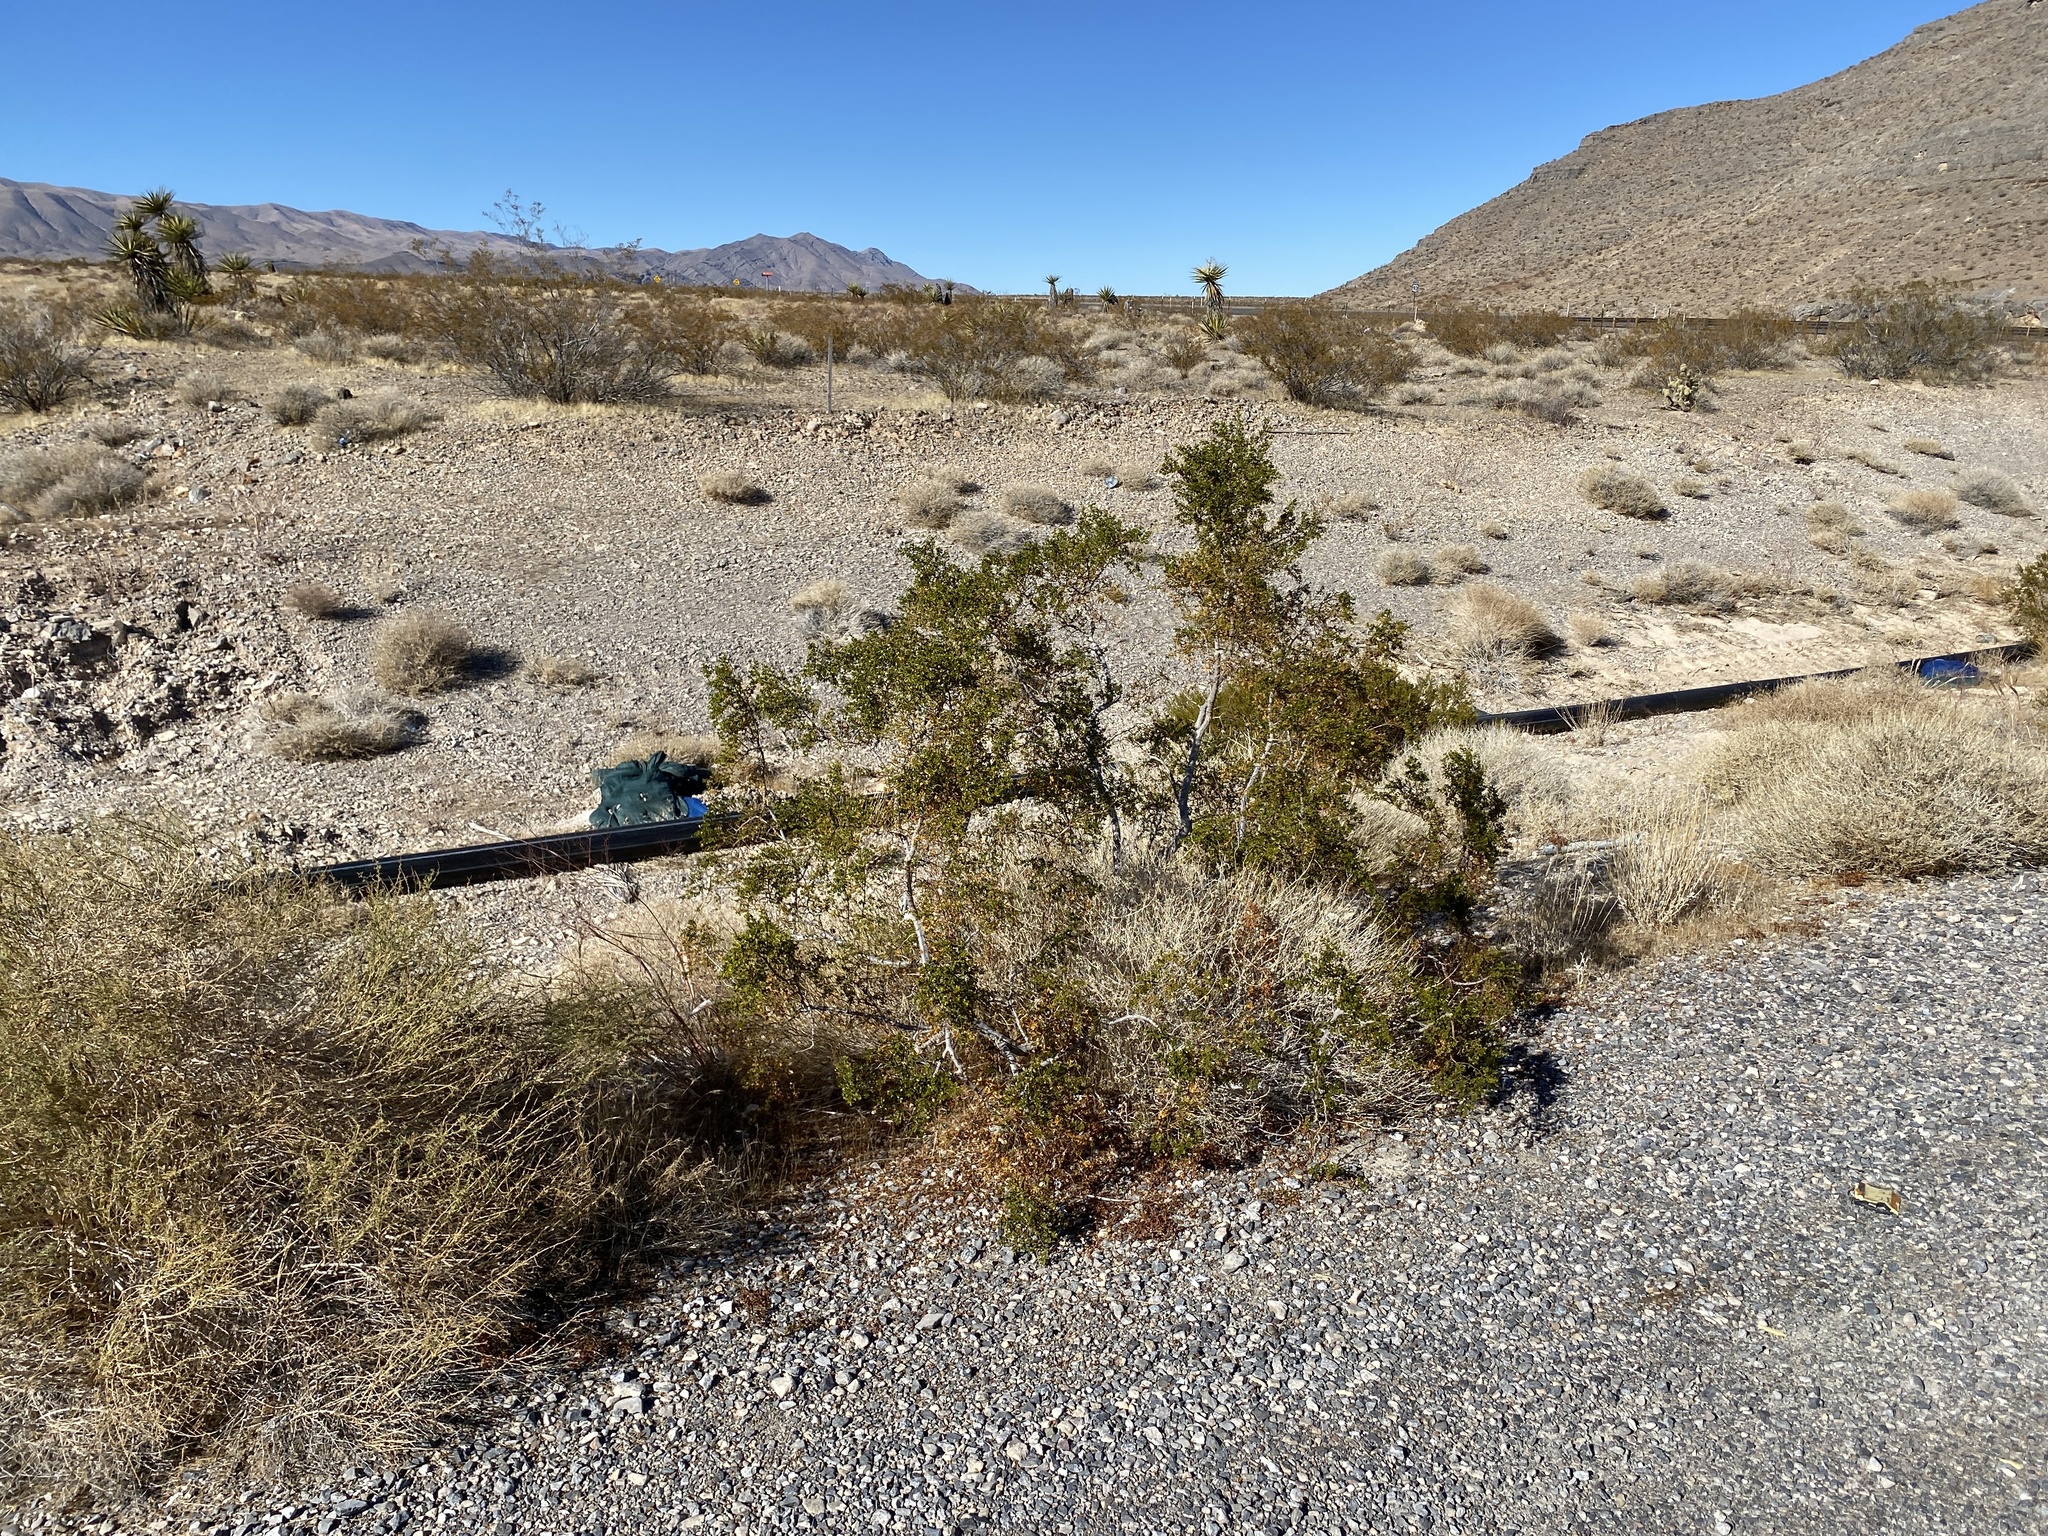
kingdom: Plantae
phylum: Tracheophyta
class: Magnoliopsida
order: Zygophyllales
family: Zygophyllaceae
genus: Larrea
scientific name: Larrea tridentata
